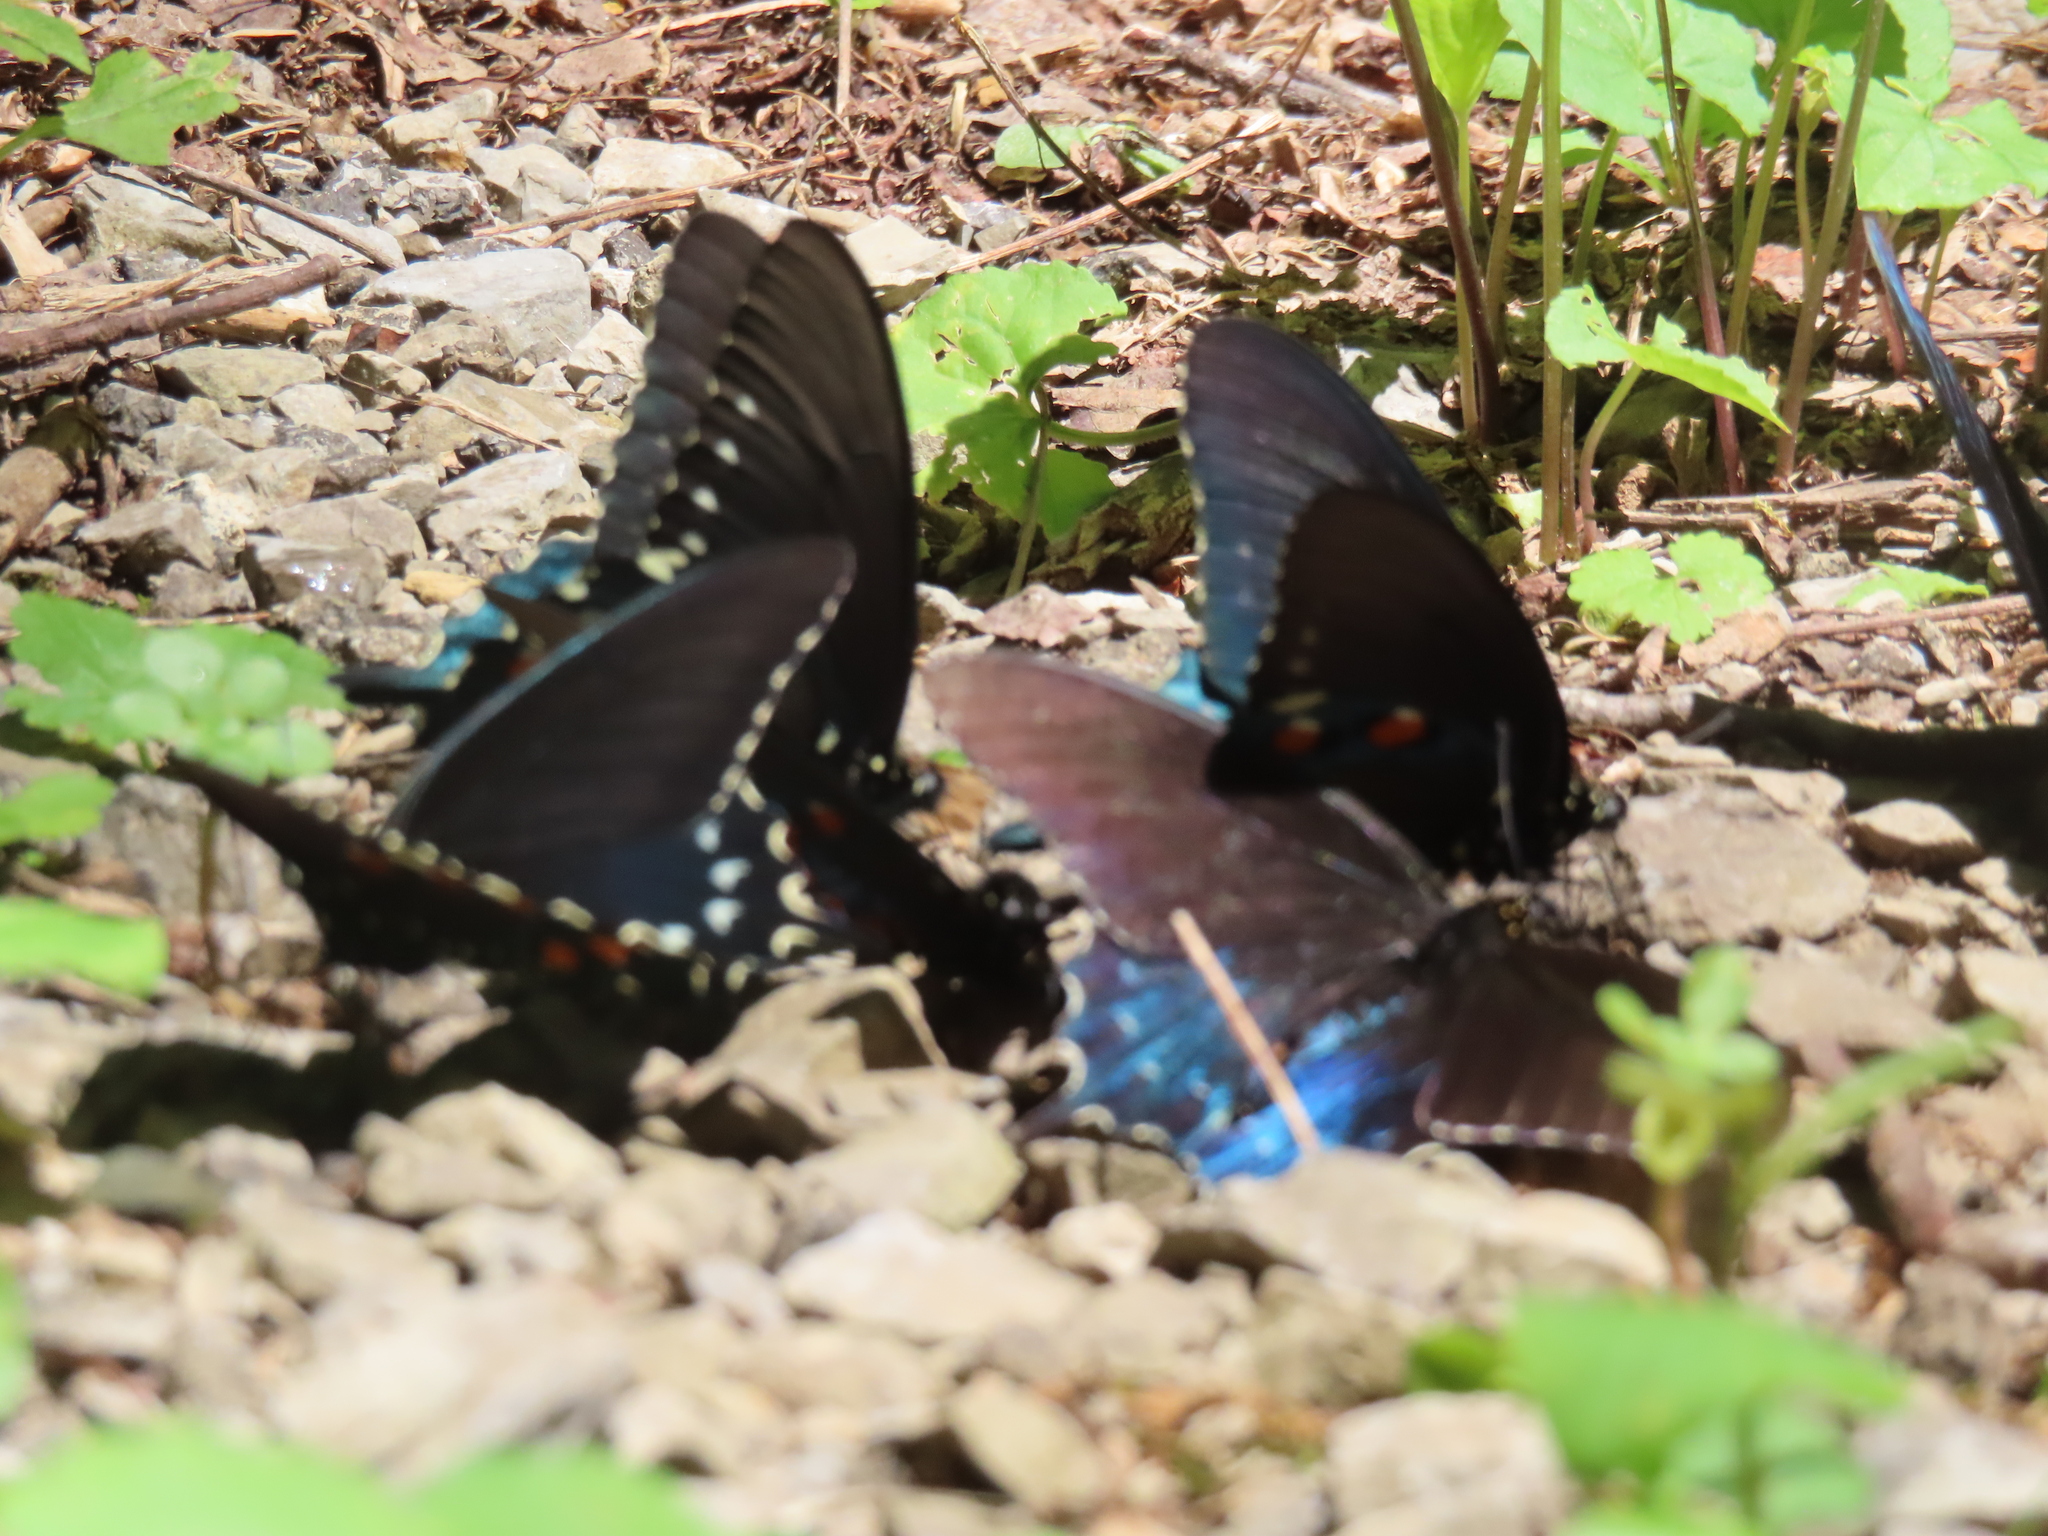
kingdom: Animalia
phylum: Arthropoda
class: Insecta
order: Lepidoptera
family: Papilionidae
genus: Battus
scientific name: Battus philenor
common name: Pipevine swallowtail
